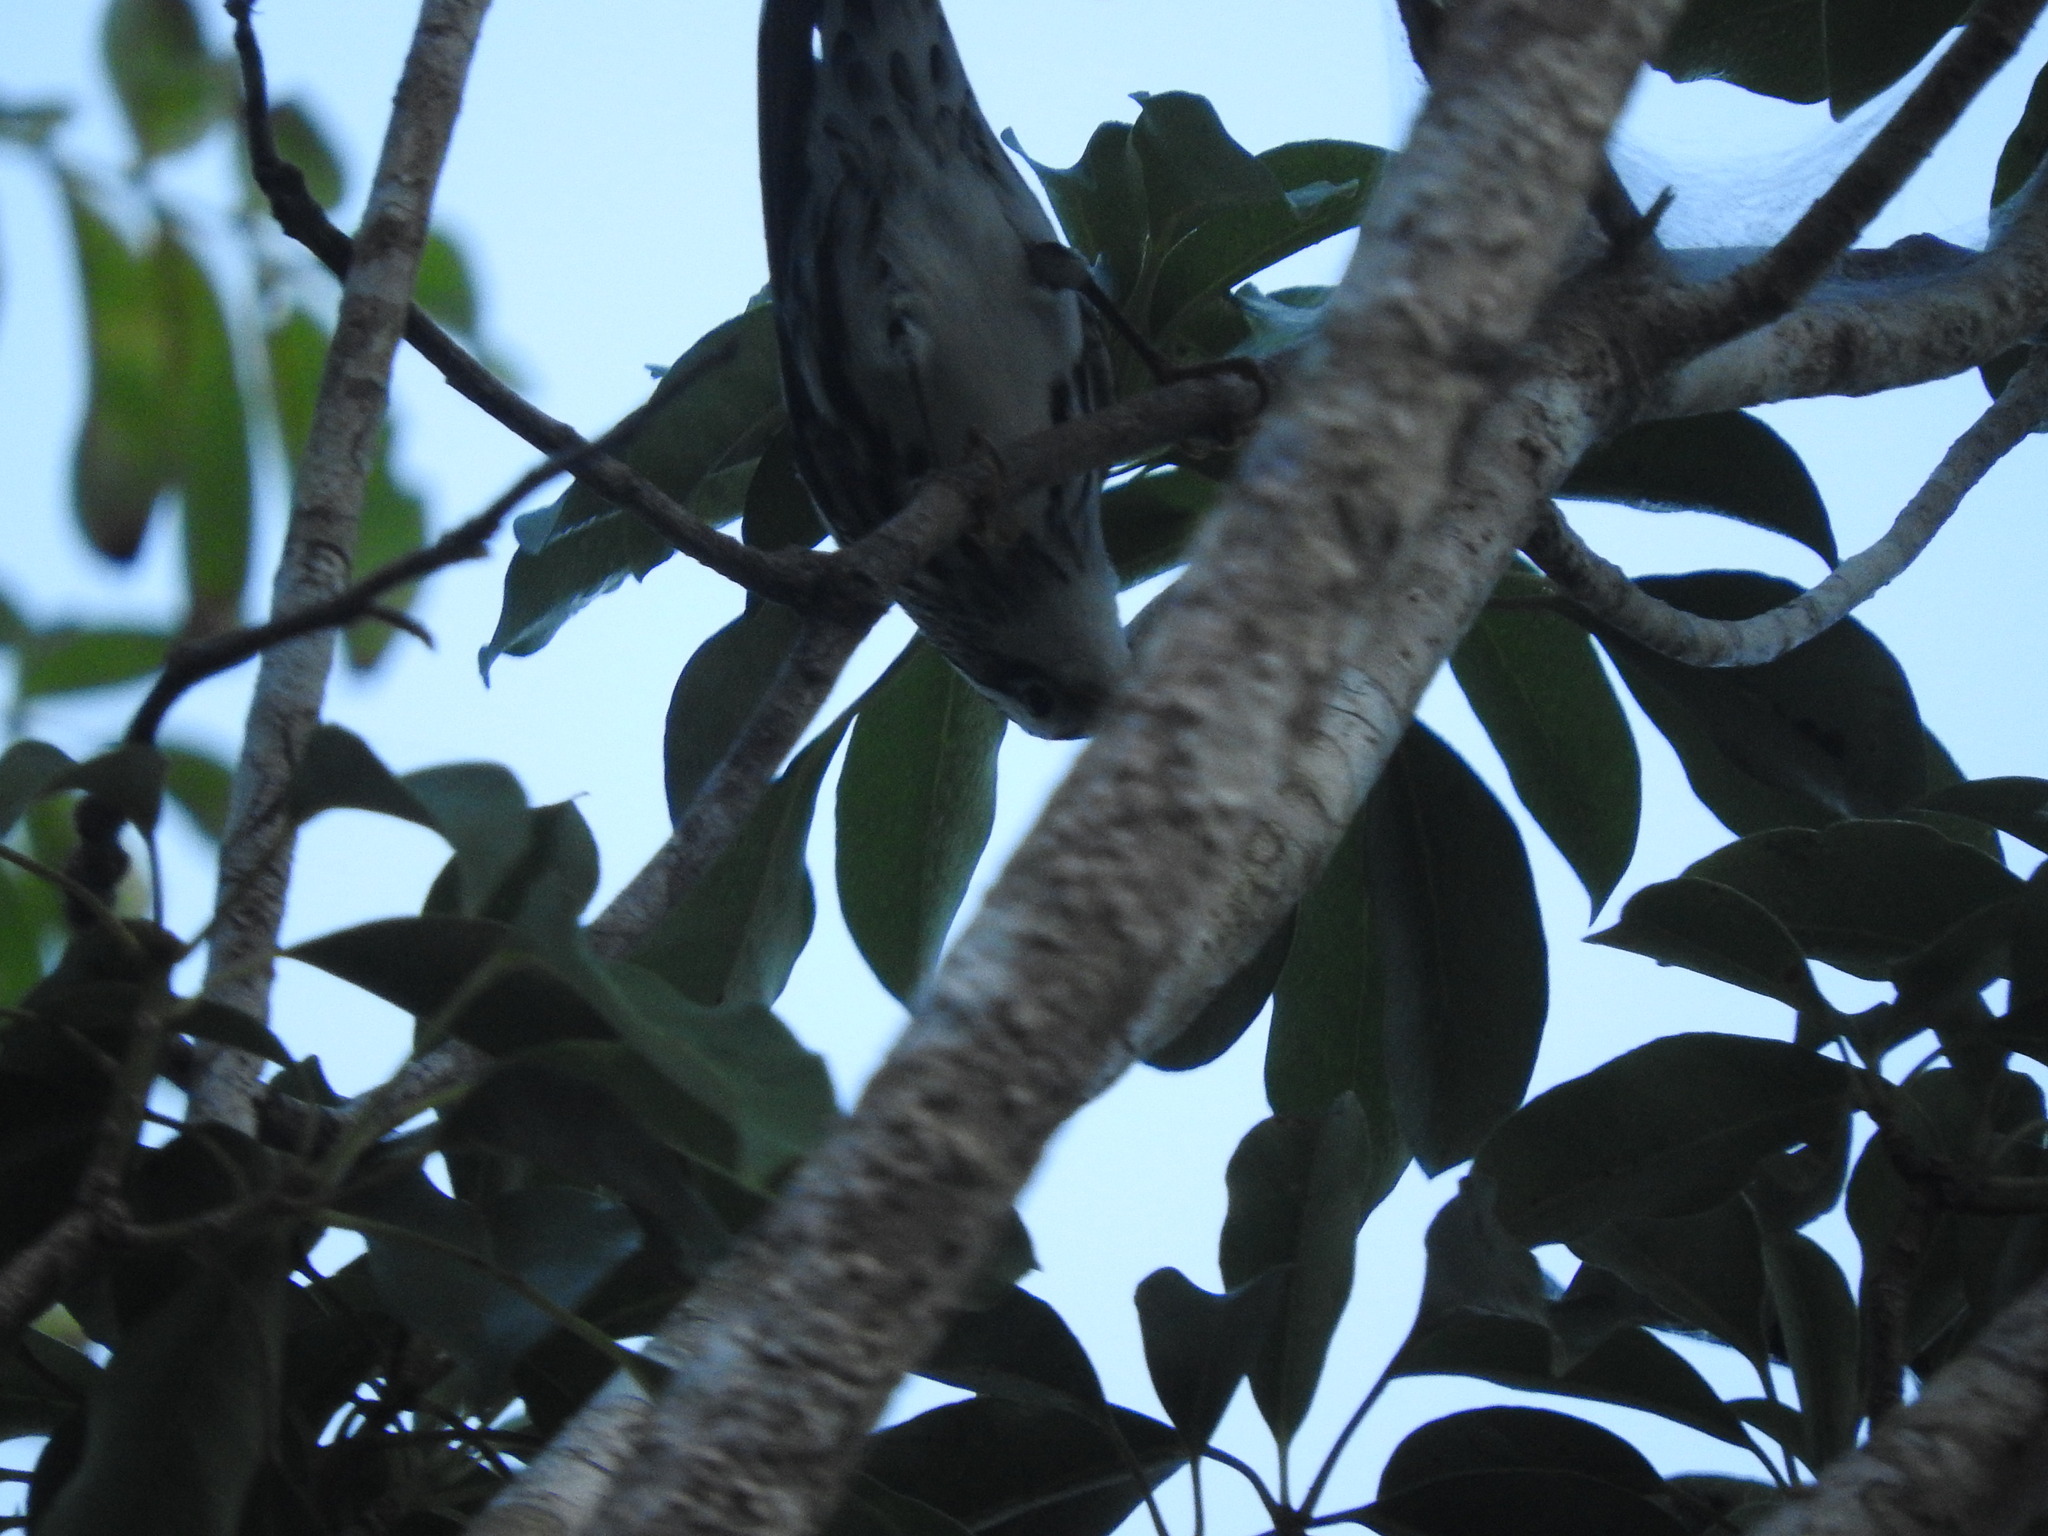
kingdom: Animalia
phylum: Chordata
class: Aves
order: Passeriformes
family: Parulidae
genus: Mniotilta
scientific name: Mniotilta varia
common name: Black-and-white warbler
